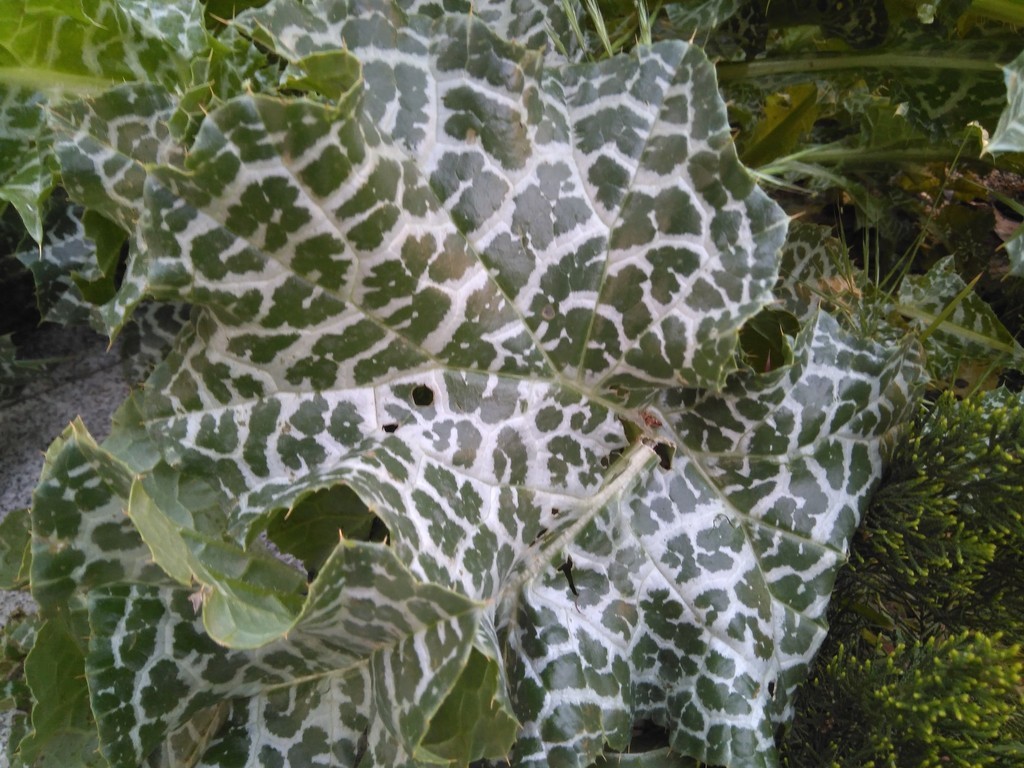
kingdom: Plantae
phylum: Tracheophyta
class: Magnoliopsida
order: Asterales
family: Asteraceae
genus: Silybum
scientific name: Silybum marianum
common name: Milk thistle
